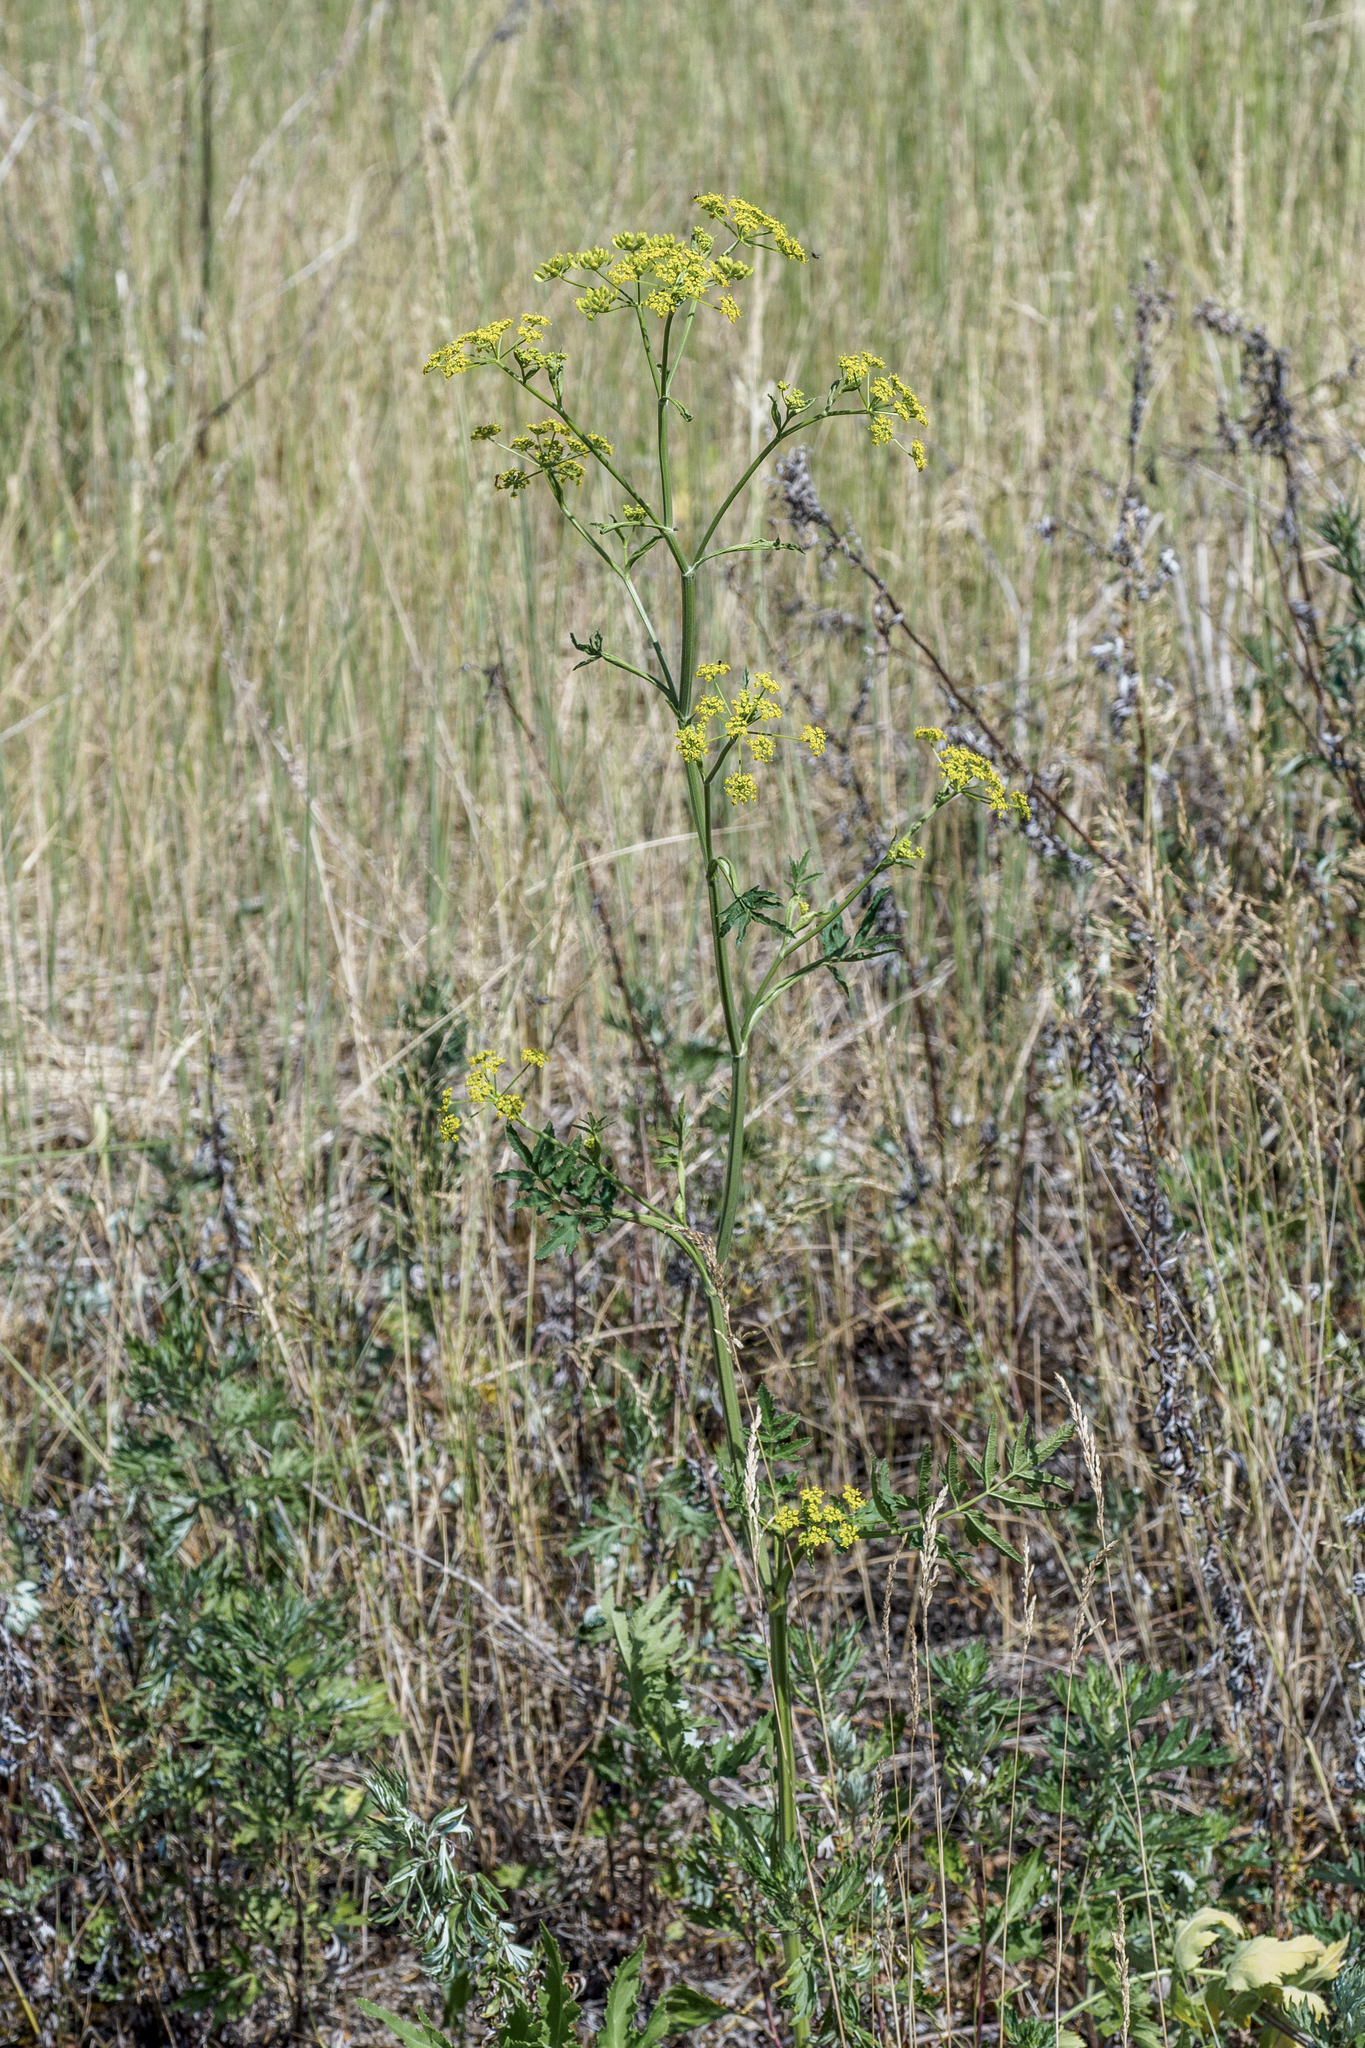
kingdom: Plantae
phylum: Tracheophyta
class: Magnoliopsida
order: Apiales
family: Apiaceae
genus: Pastinaca
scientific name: Pastinaca sativa
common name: Wild parsnip
